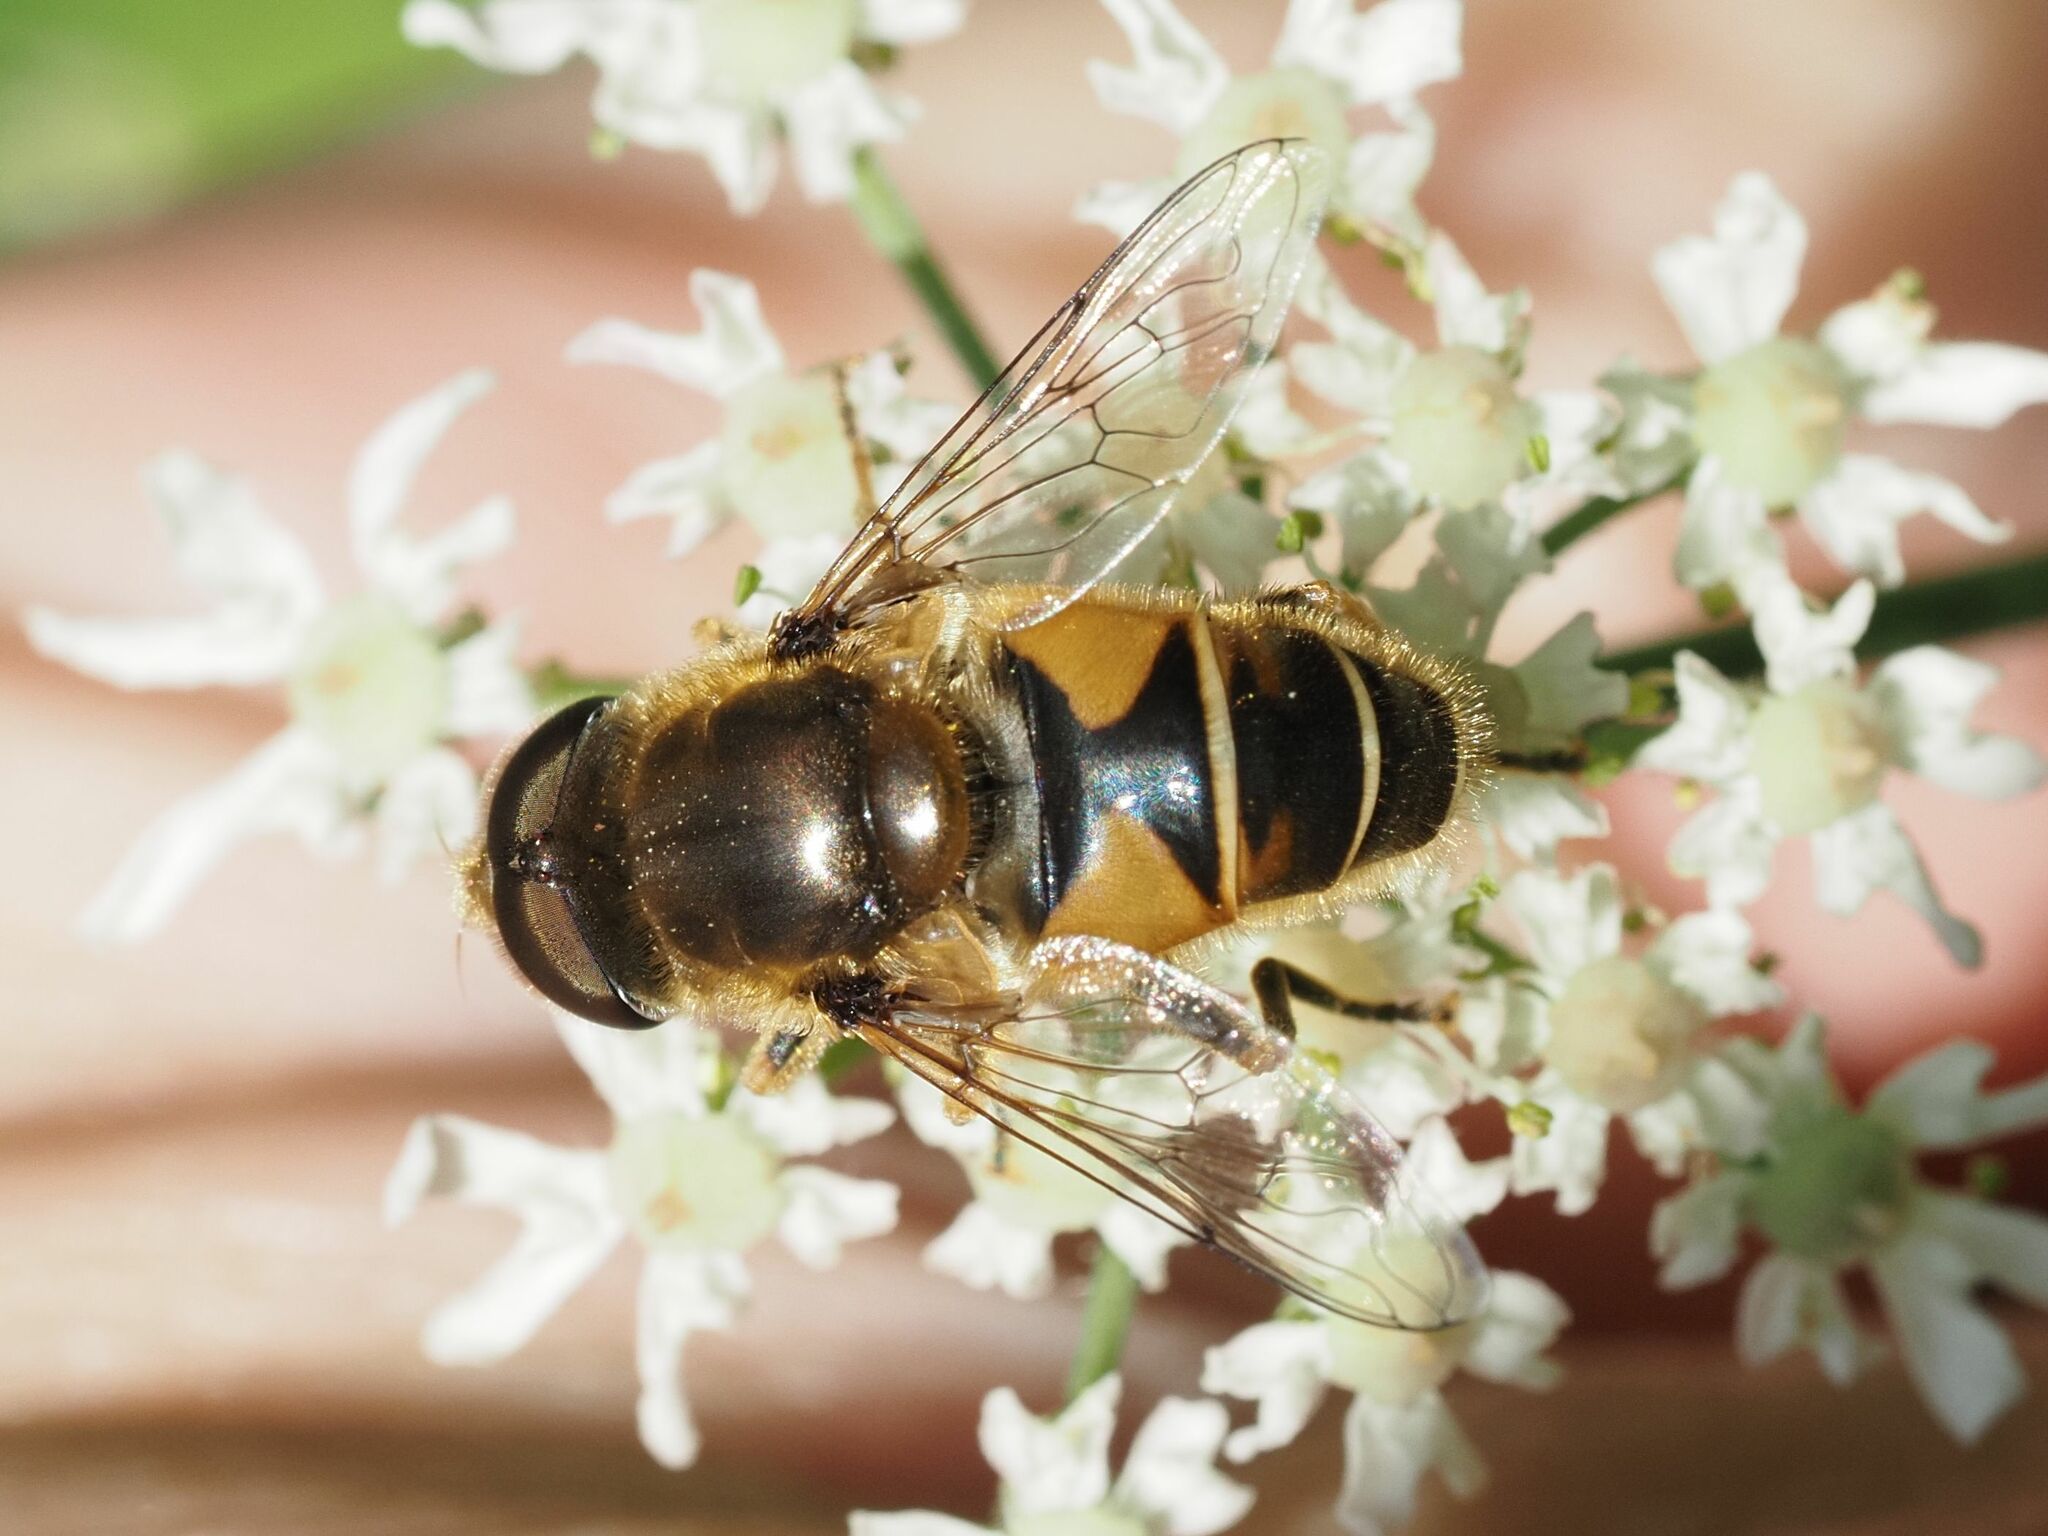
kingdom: Animalia
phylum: Arthropoda
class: Insecta
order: Diptera
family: Syrphidae
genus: Eristalis
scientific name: Eristalis nemorum
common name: Orange-spined drone fly
